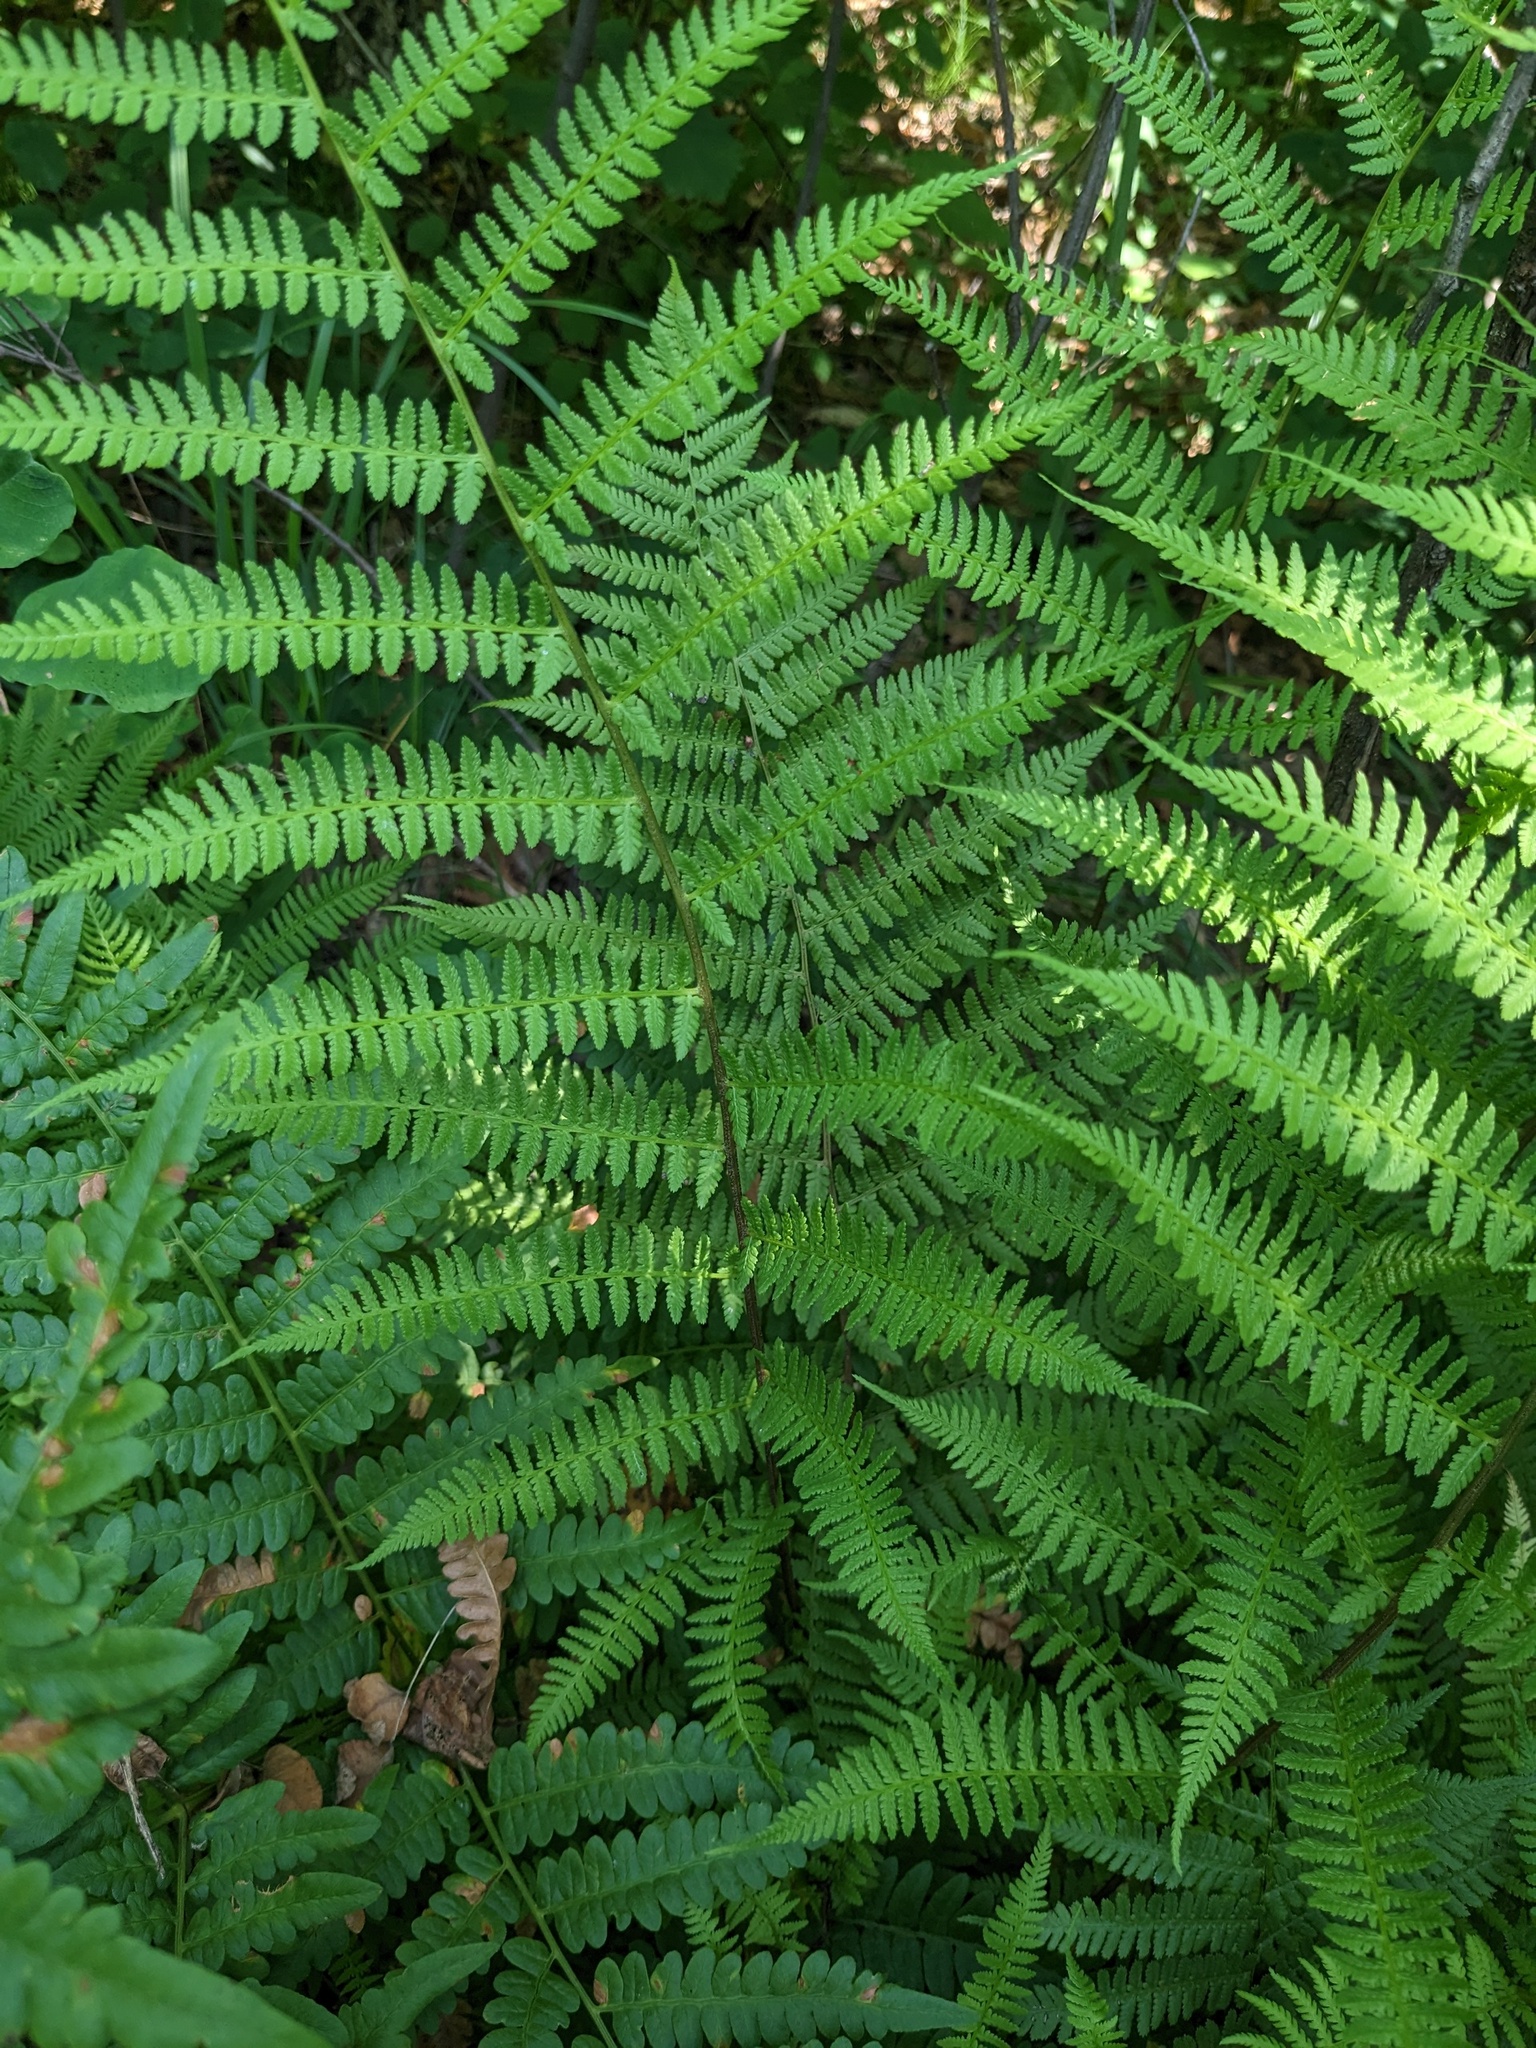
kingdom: Plantae
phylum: Tracheophyta
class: Polypodiopsida
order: Polypodiales
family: Athyriaceae
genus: Athyrium
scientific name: Athyrium filix-femina
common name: Lady fern
